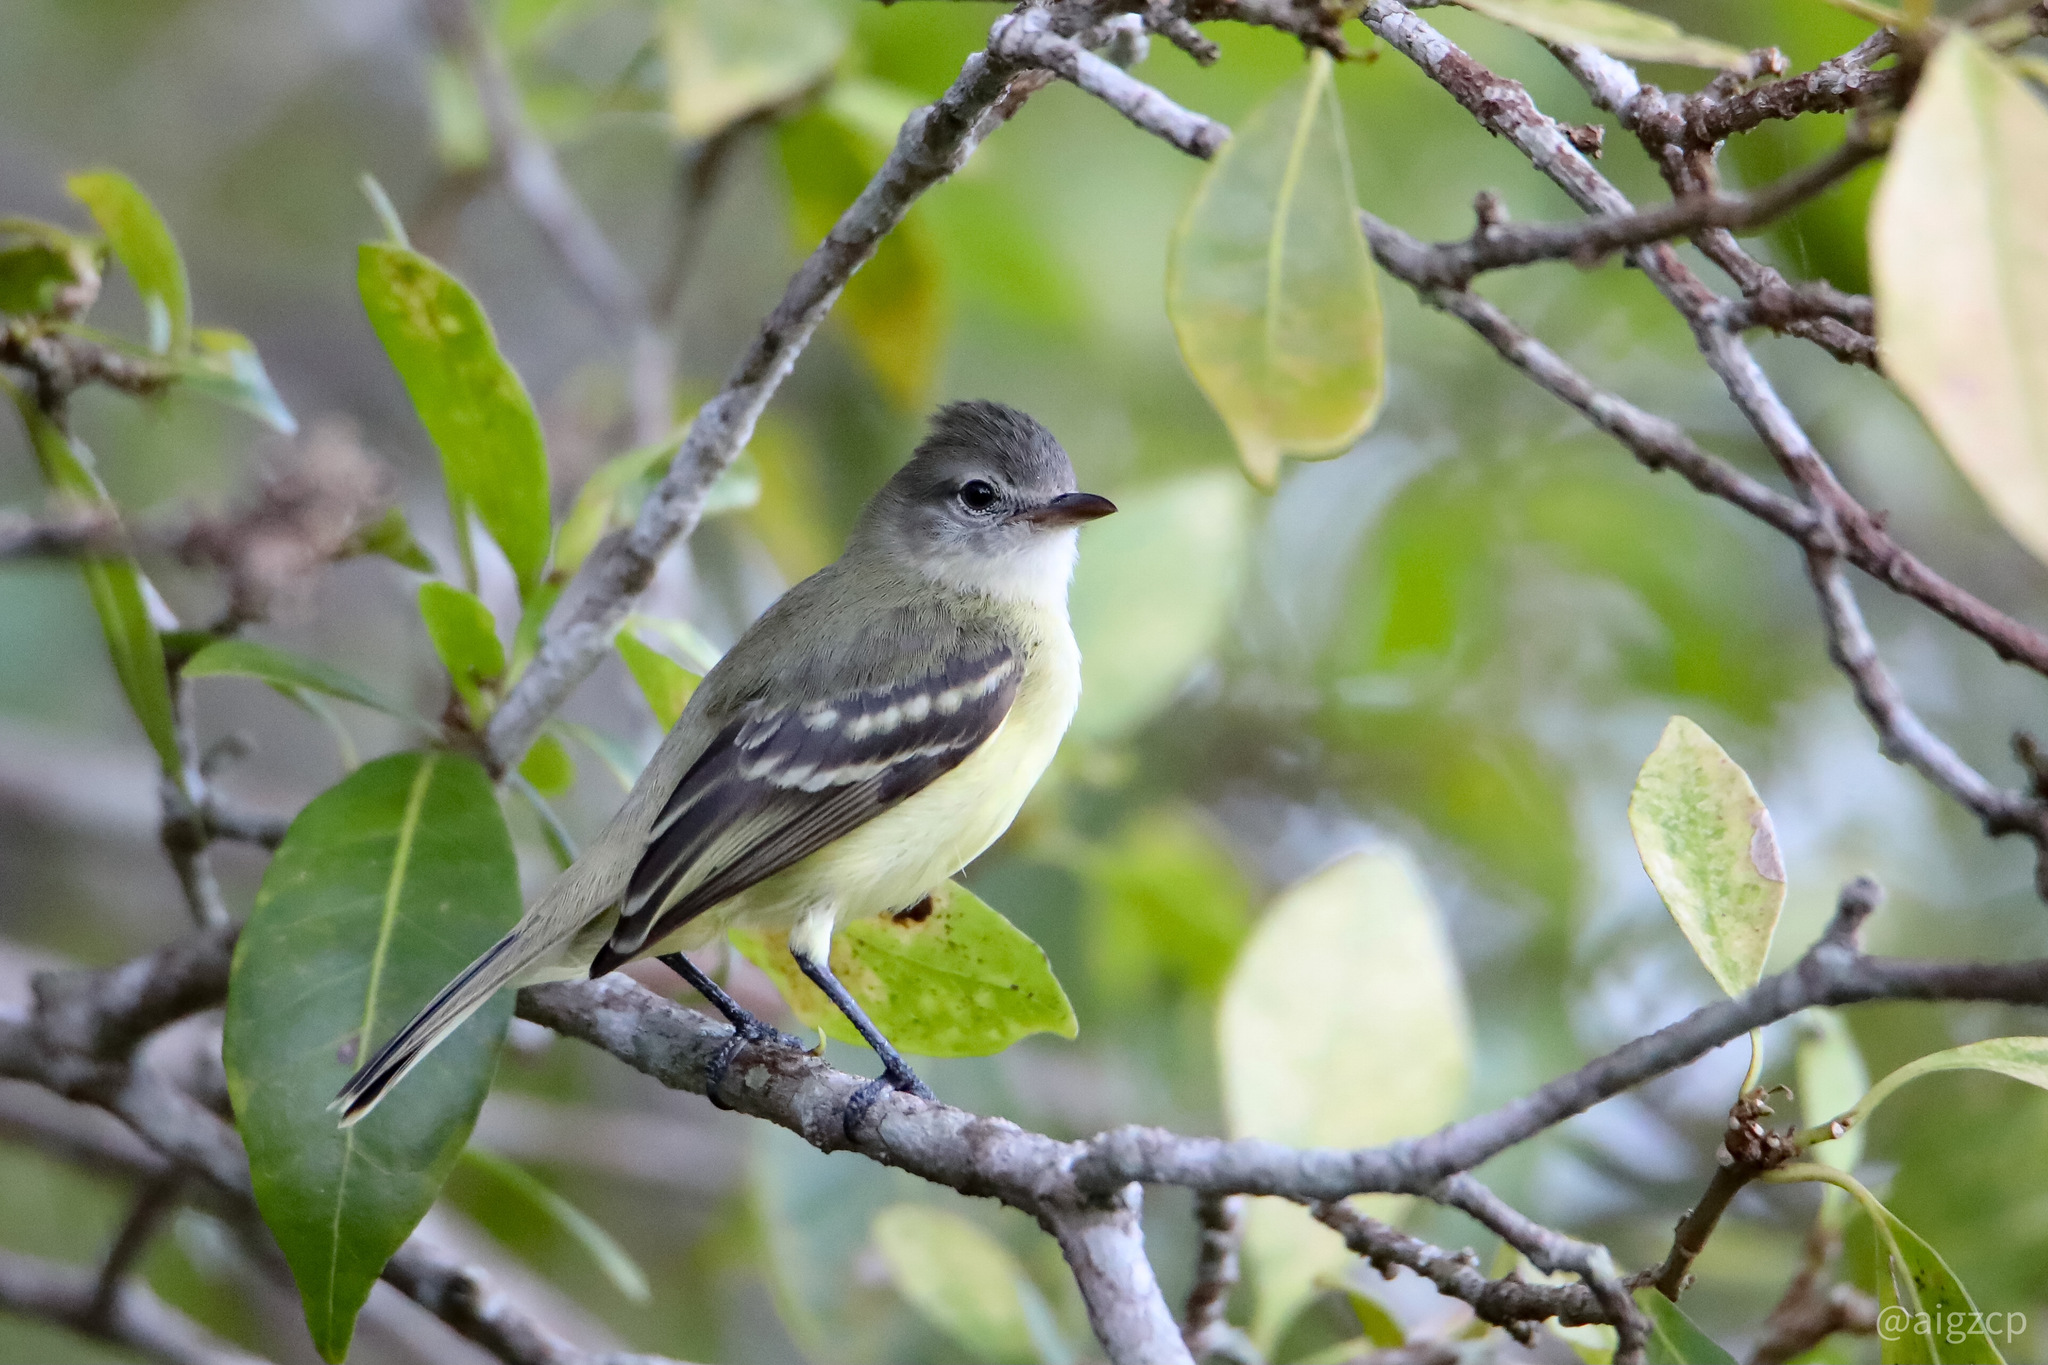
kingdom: Animalia
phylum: Chordata
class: Aves
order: Passeriformes
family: Tyrannidae
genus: Camptostoma
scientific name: Camptostoma obsoletum
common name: Southern beardless-tyrannulet
